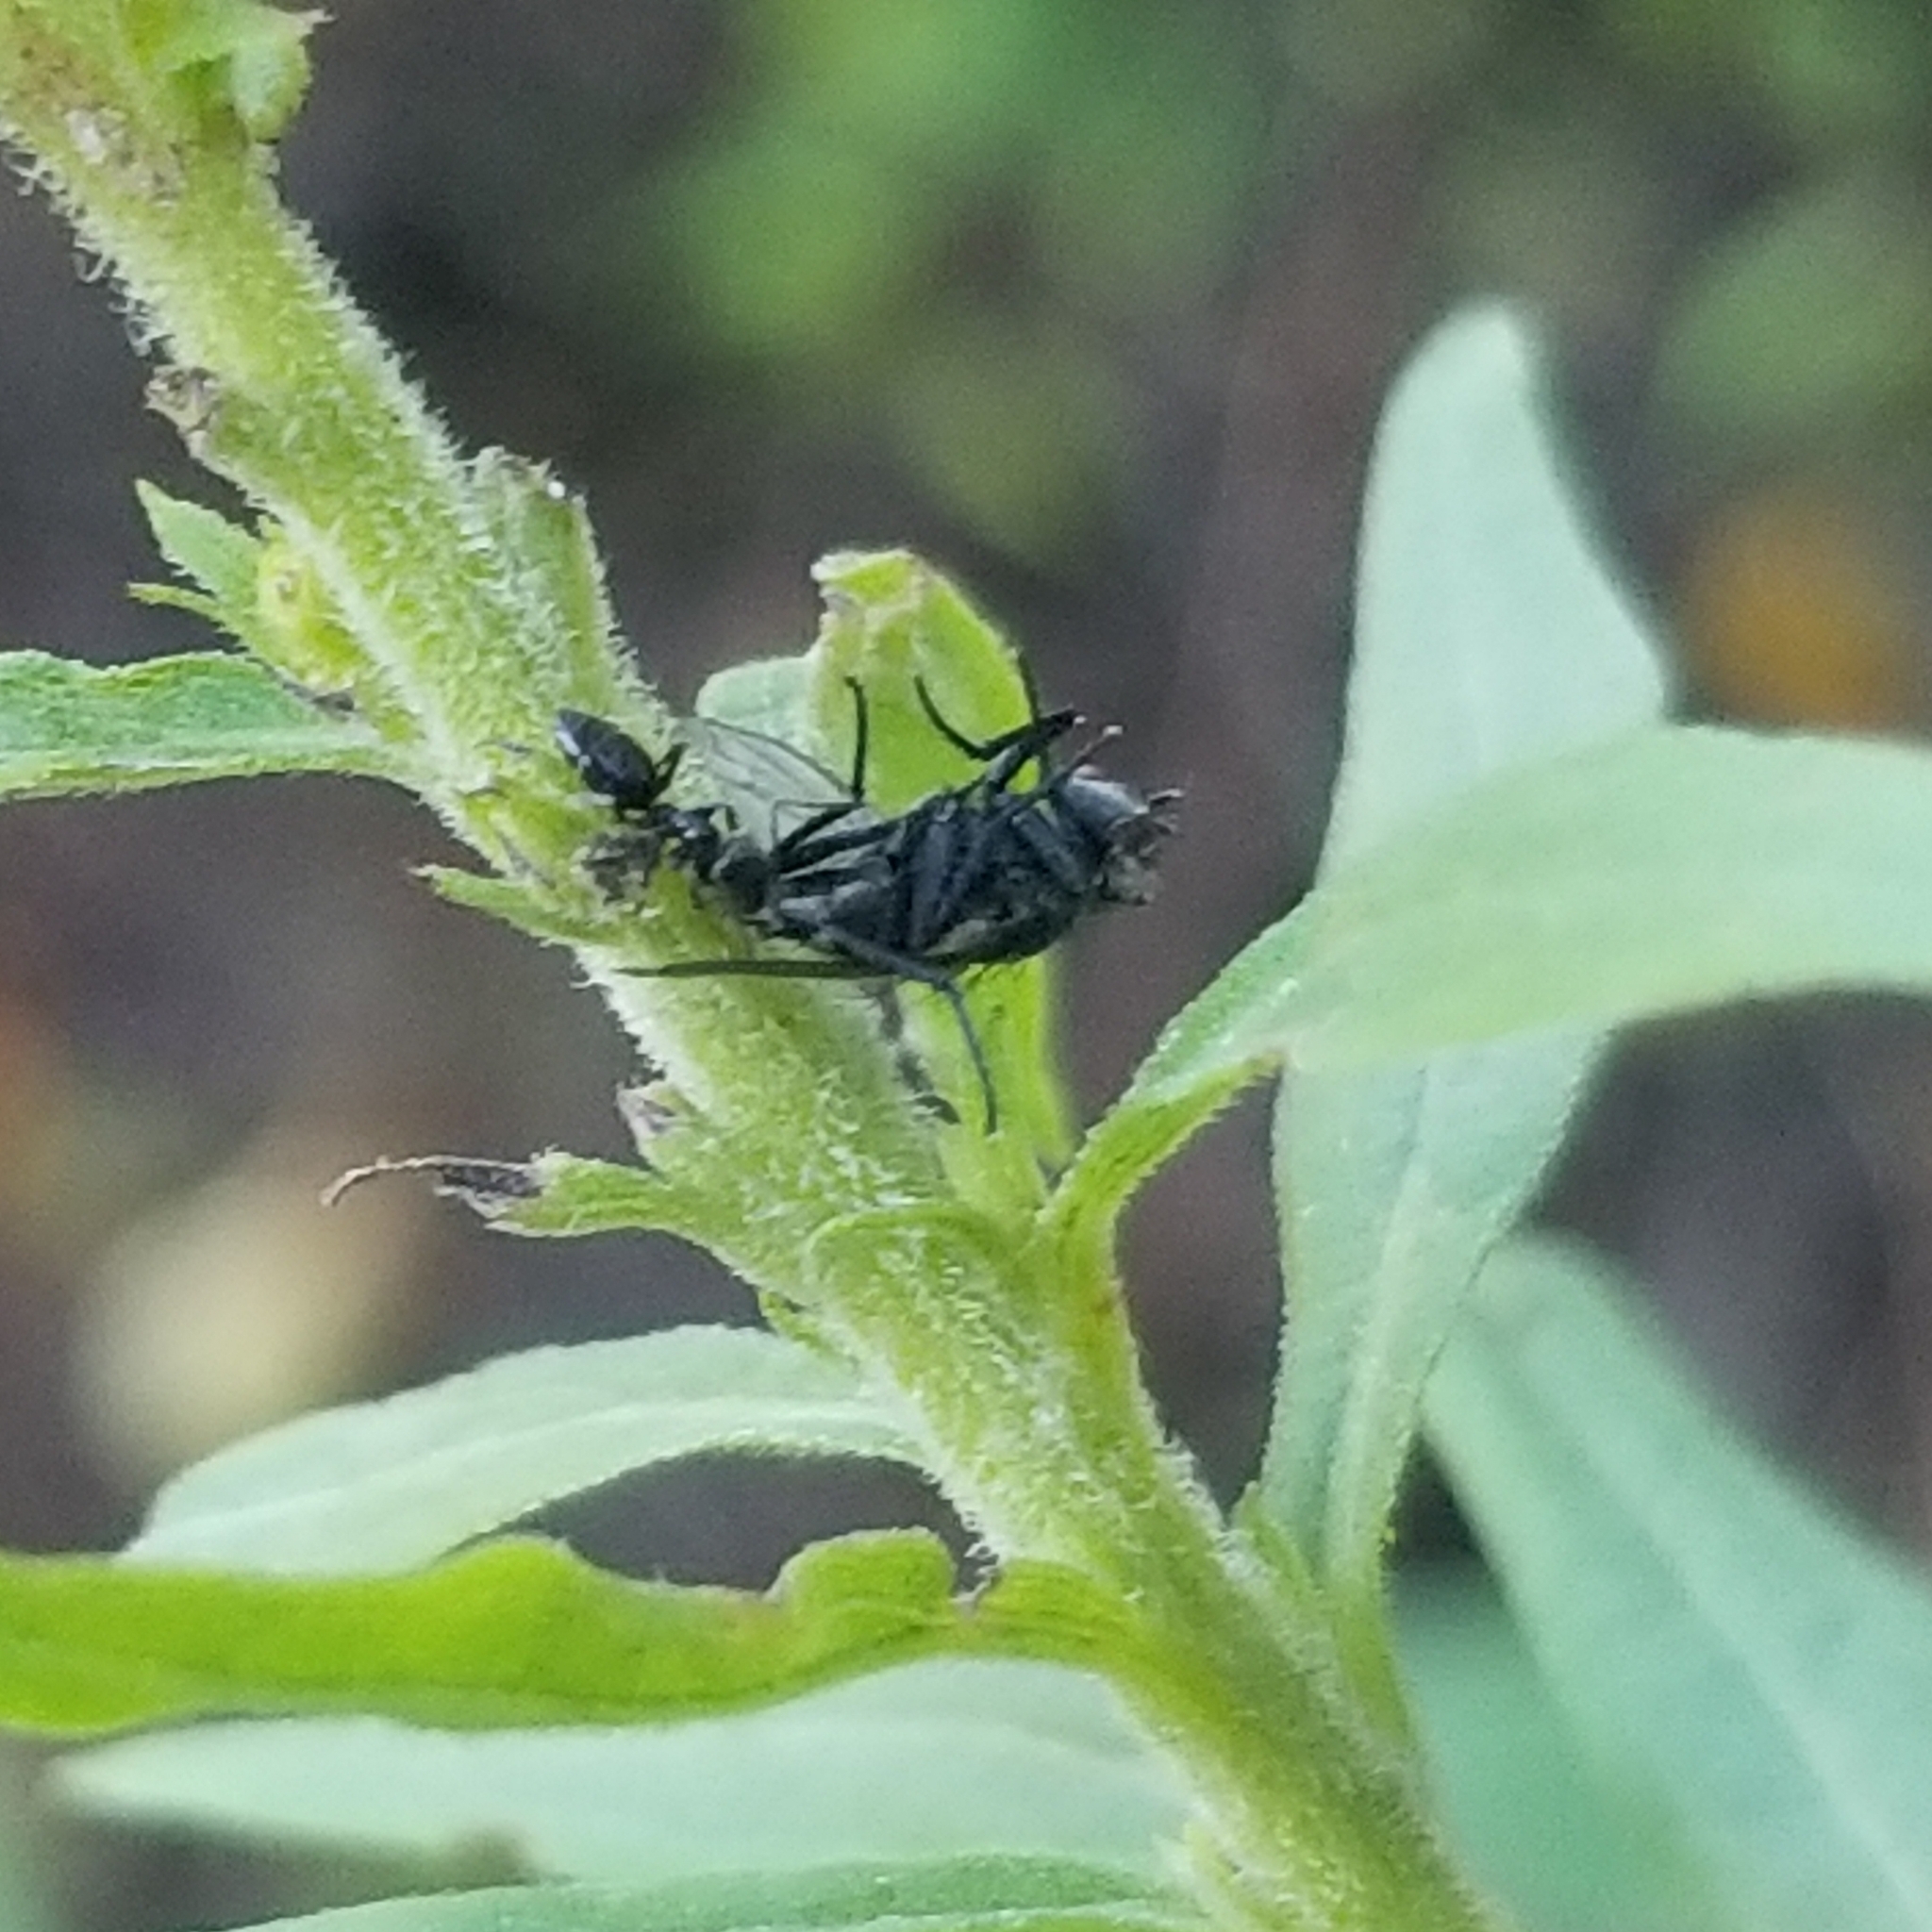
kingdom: Animalia
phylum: Arthropoda
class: Insecta
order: Hymenoptera
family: Formicidae
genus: Tapinoma
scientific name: Tapinoma sessile
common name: Odorous house ant
